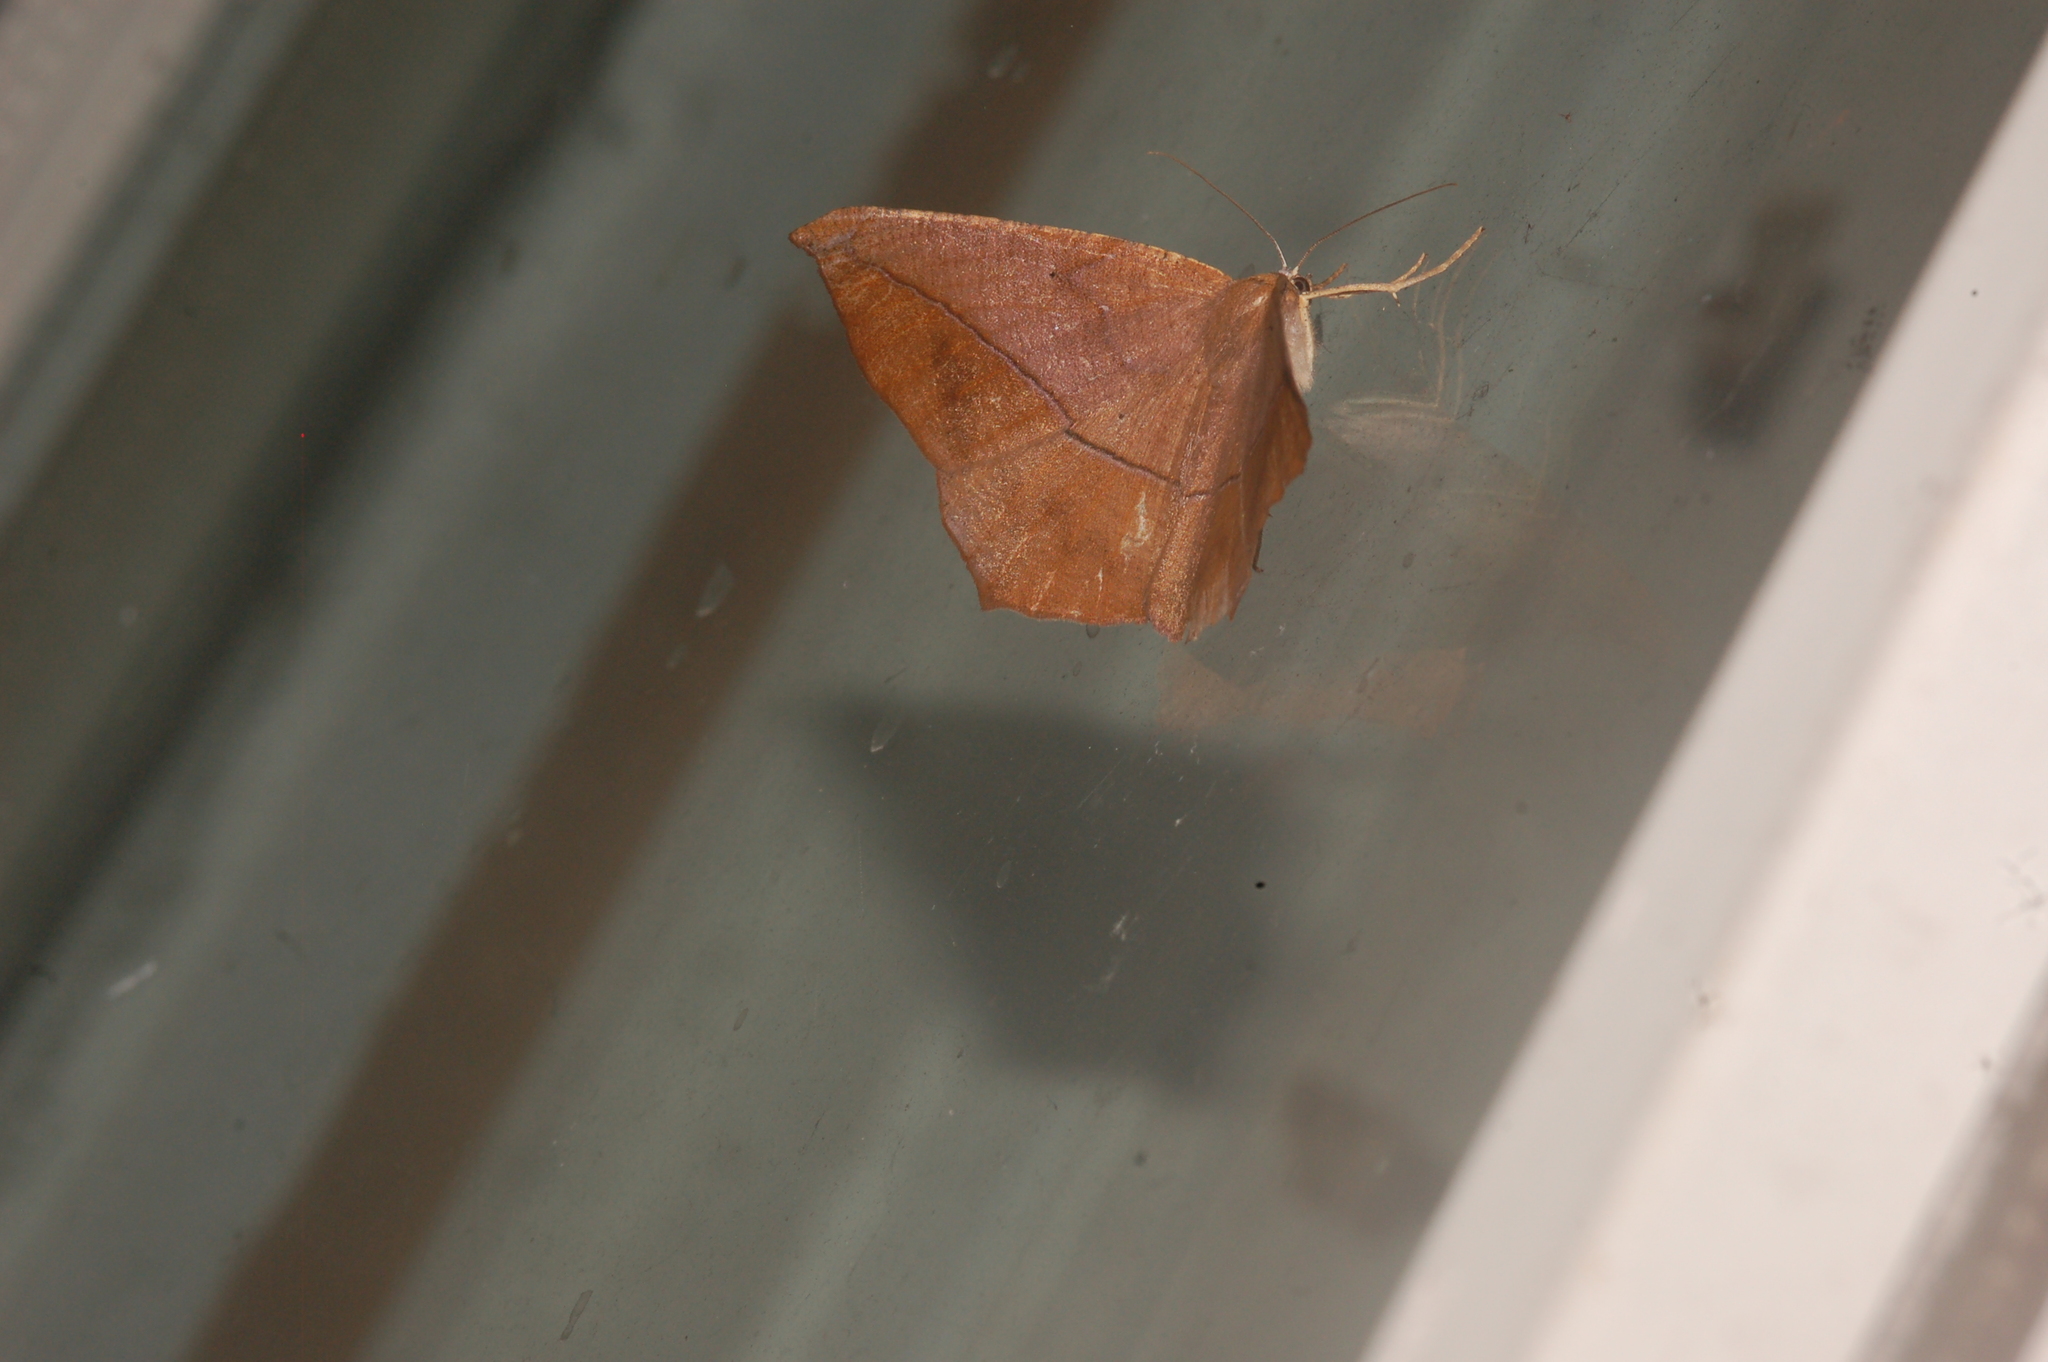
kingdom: Animalia
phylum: Arthropoda
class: Insecta
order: Lepidoptera
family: Geometridae
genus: Prochoerodes
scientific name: Prochoerodes lineola
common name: Large maple spanworm
